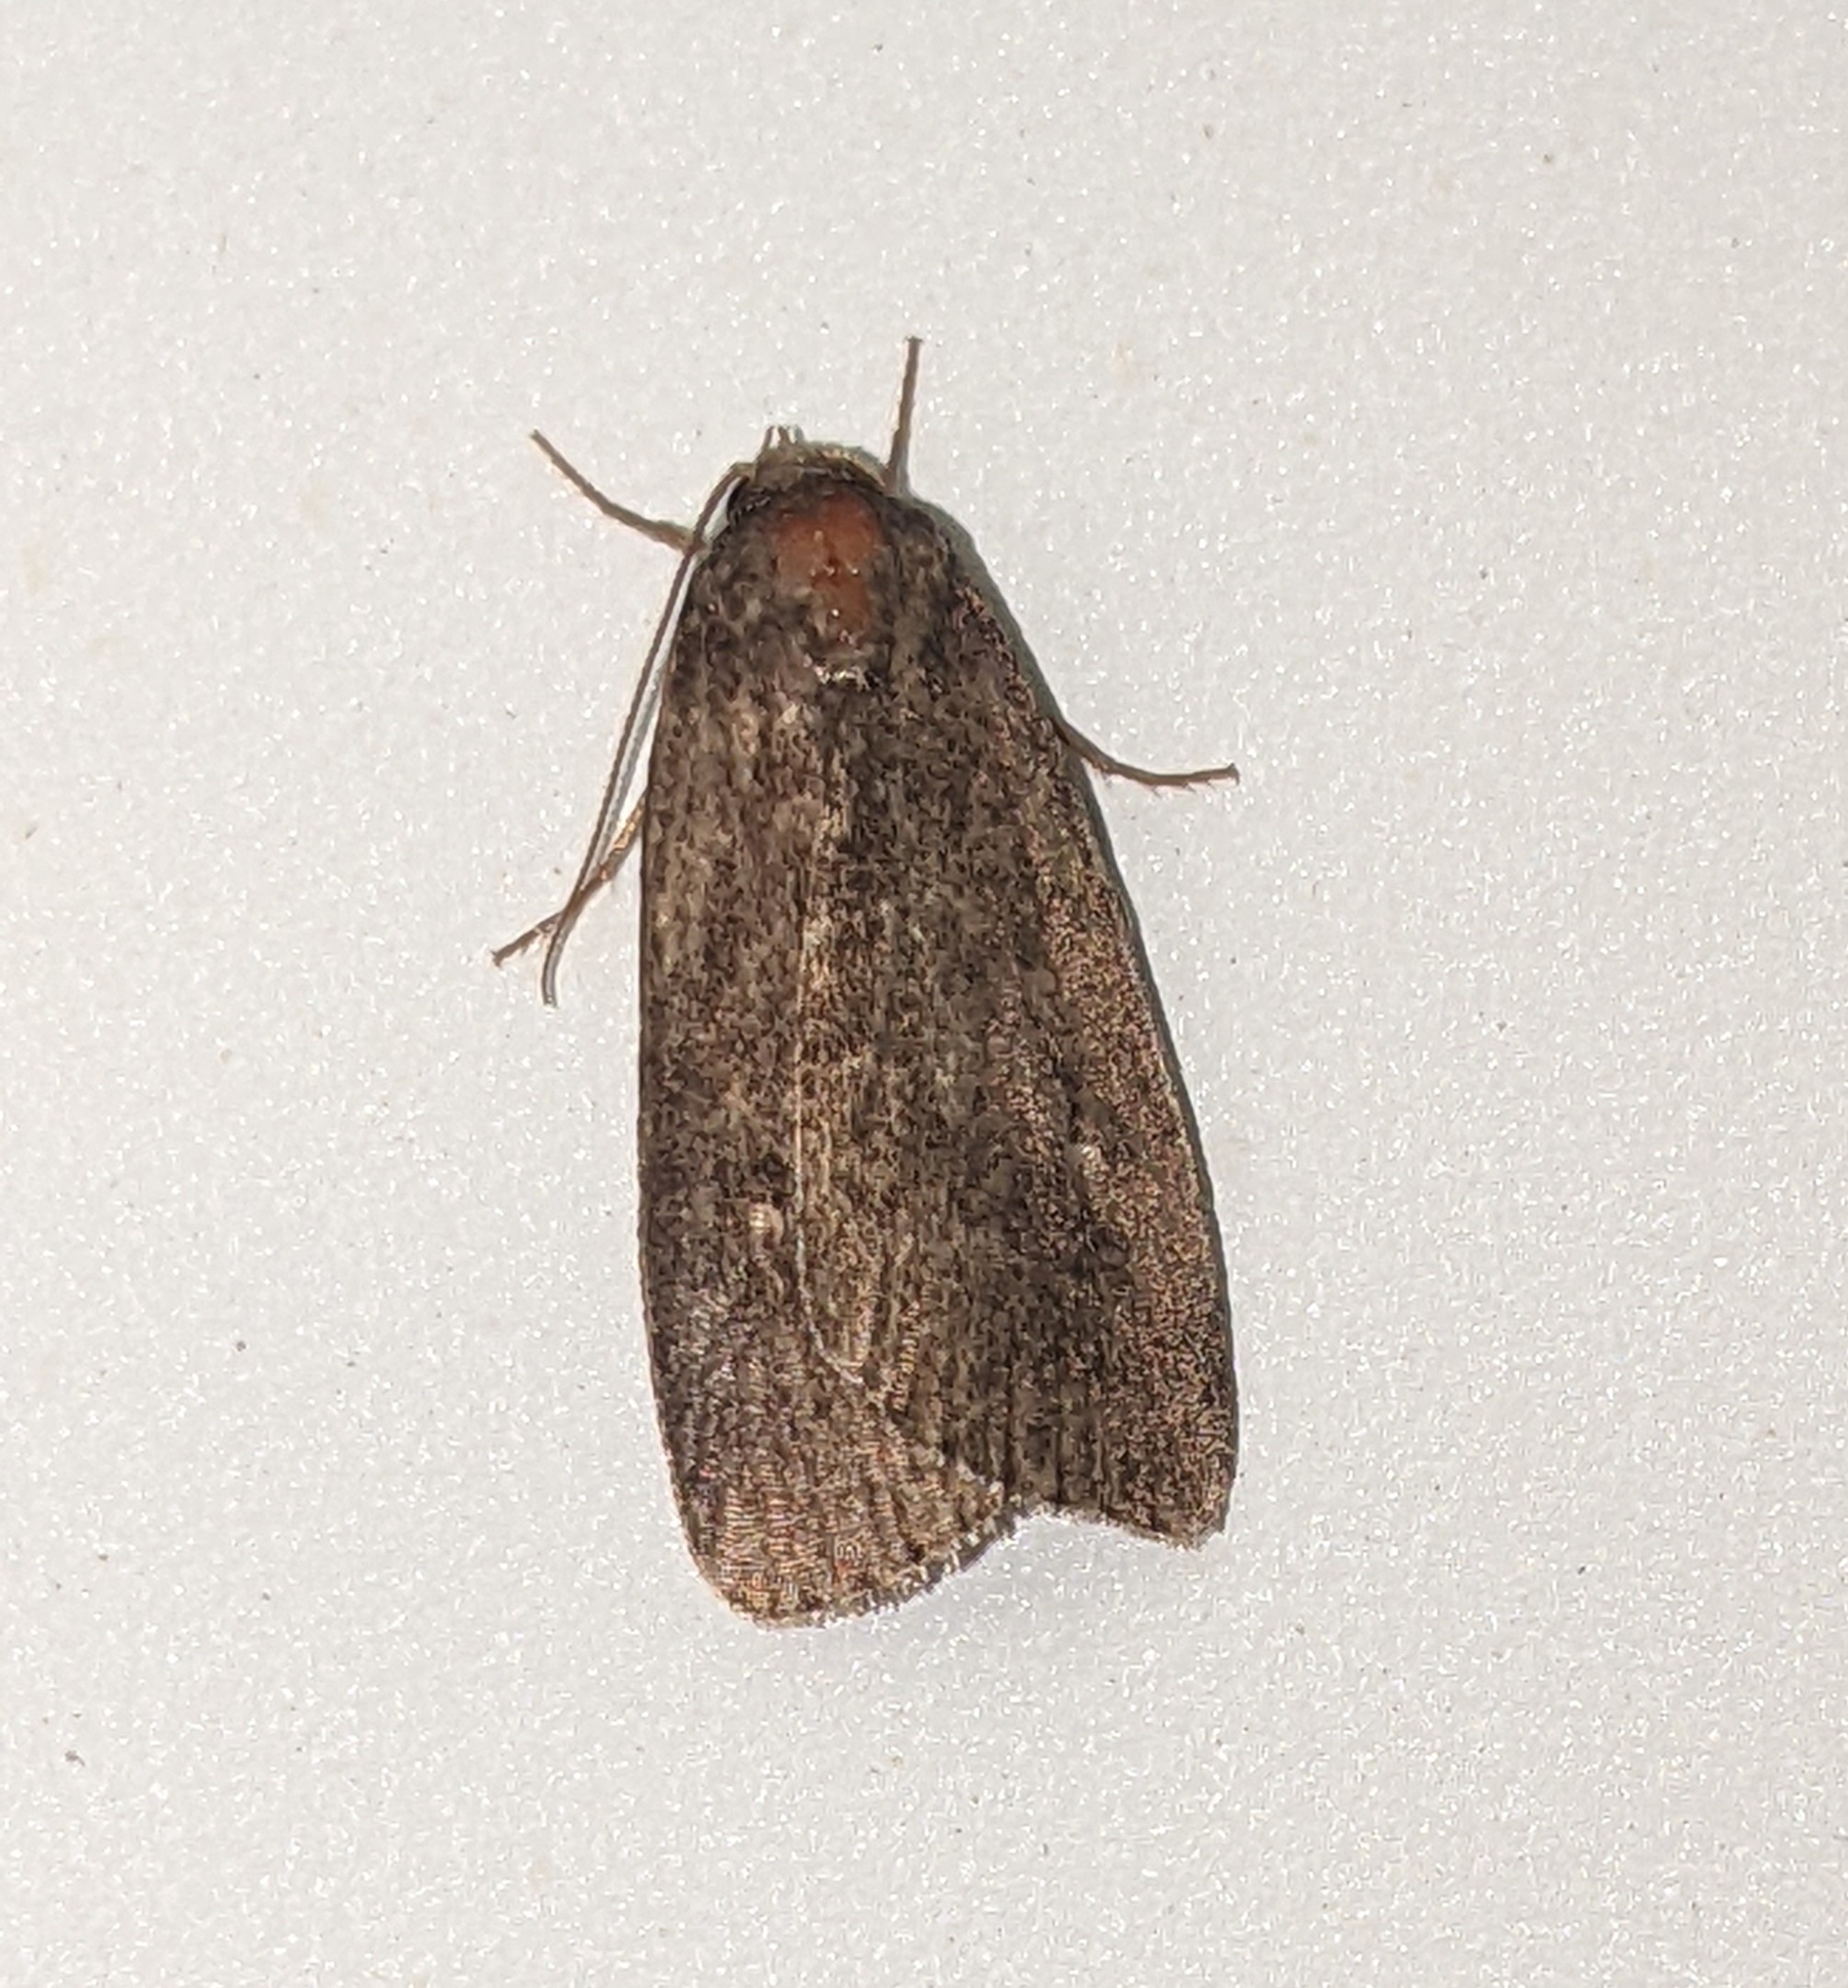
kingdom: Animalia
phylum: Arthropoda
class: Insecta
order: Lepidoptera
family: Noctuidae
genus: Proxenus
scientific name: Proxenus miranda
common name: Miranda moth
